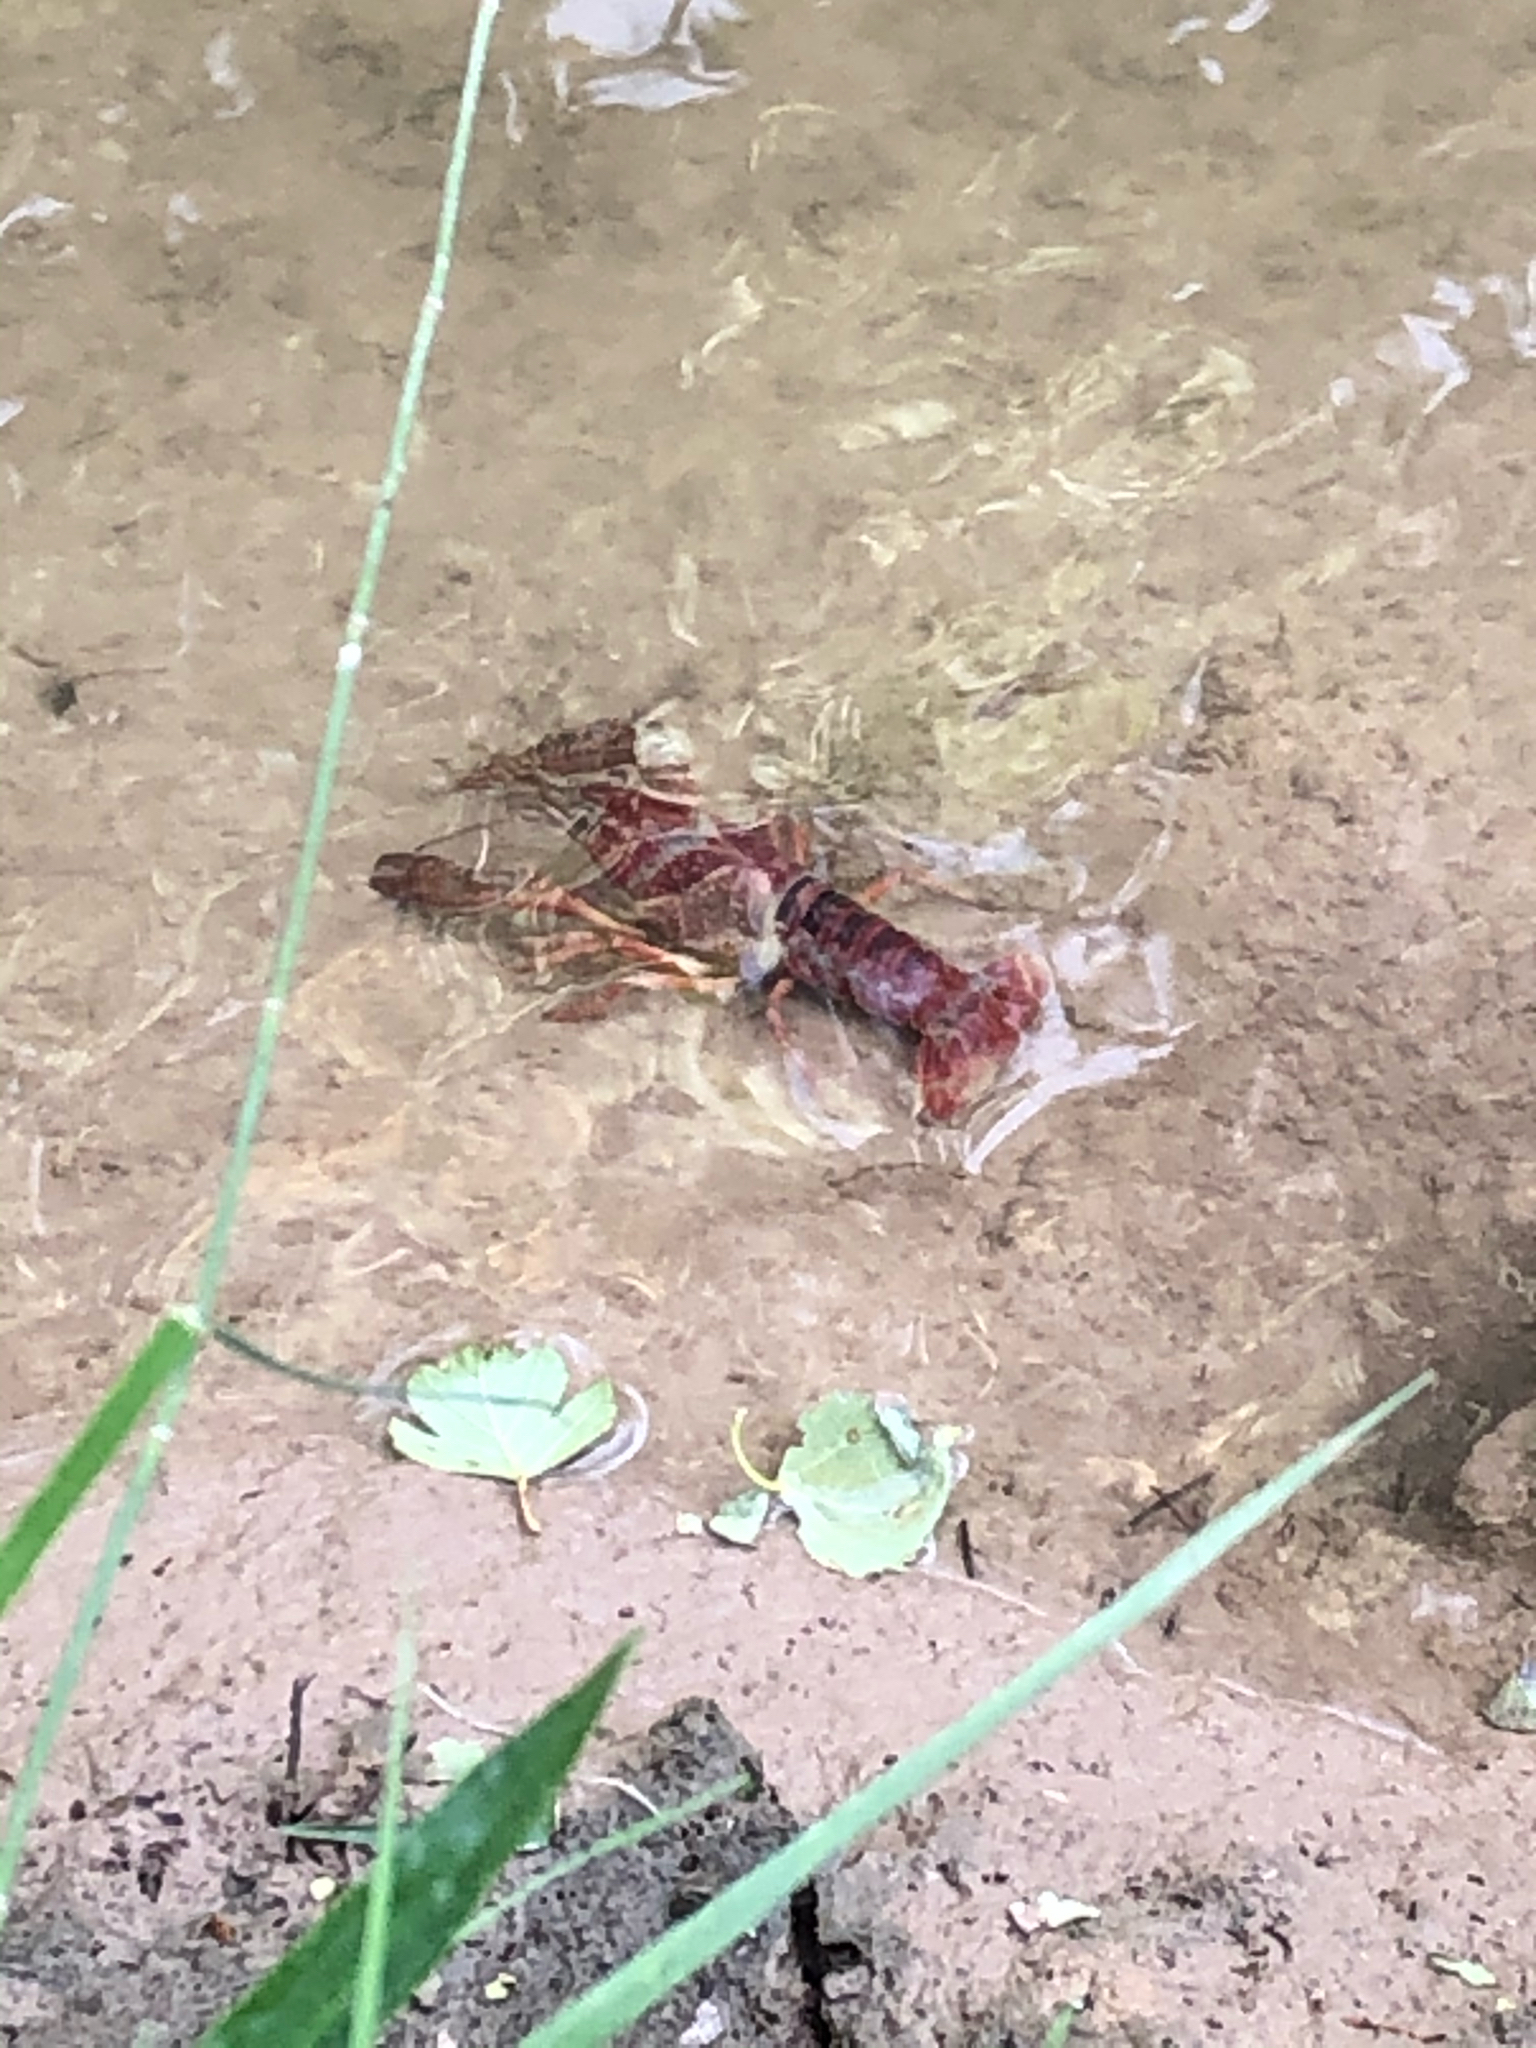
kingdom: Animalia
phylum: Arthropoda
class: Malacostraca
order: Decapoda
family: Cambaridae
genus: Procambarus
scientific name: Procambarus clarkii
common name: Red swamp crayfish
